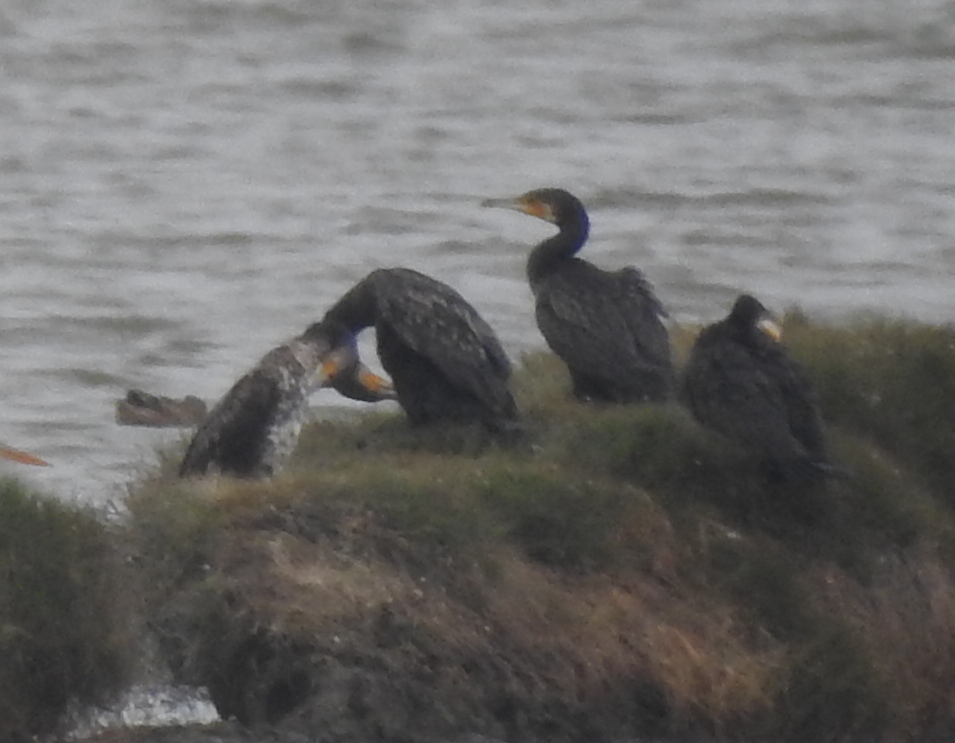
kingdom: Animalia
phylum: Chordata
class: Aves
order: Suliformes
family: Phalacrocoracidae
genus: Phalacrocorax
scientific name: Phalacrocorax carbo
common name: Great cormorant
